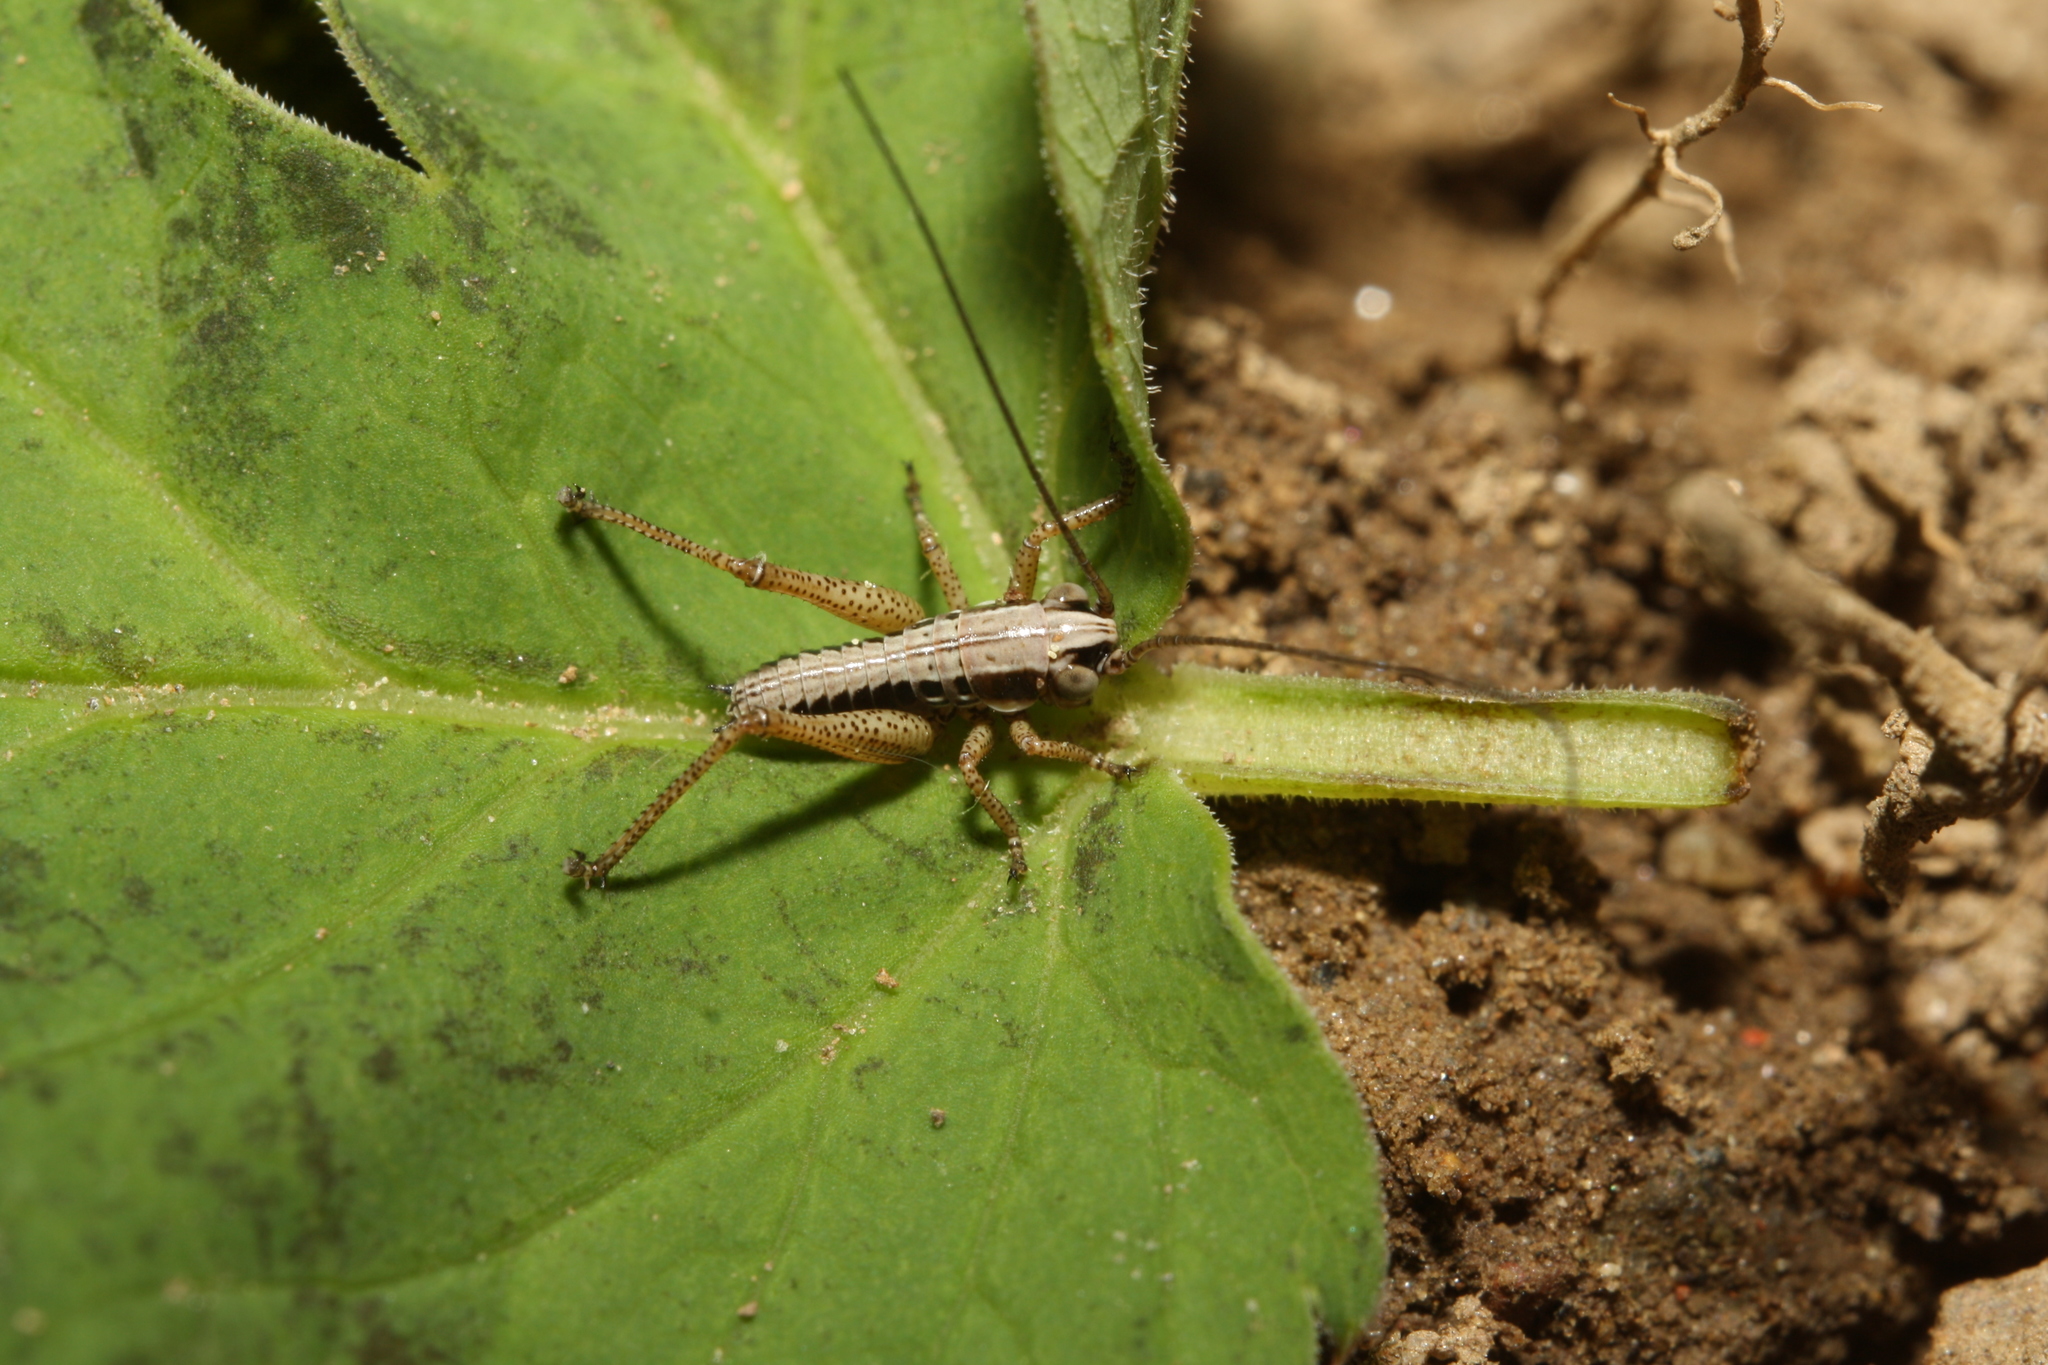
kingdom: Animalia
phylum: Arthropoda
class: Insecta
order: Orthoptera
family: Tettigoniidae
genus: Roeseliana
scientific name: Roeseliana roeselii
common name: Roesel's bush cricket
